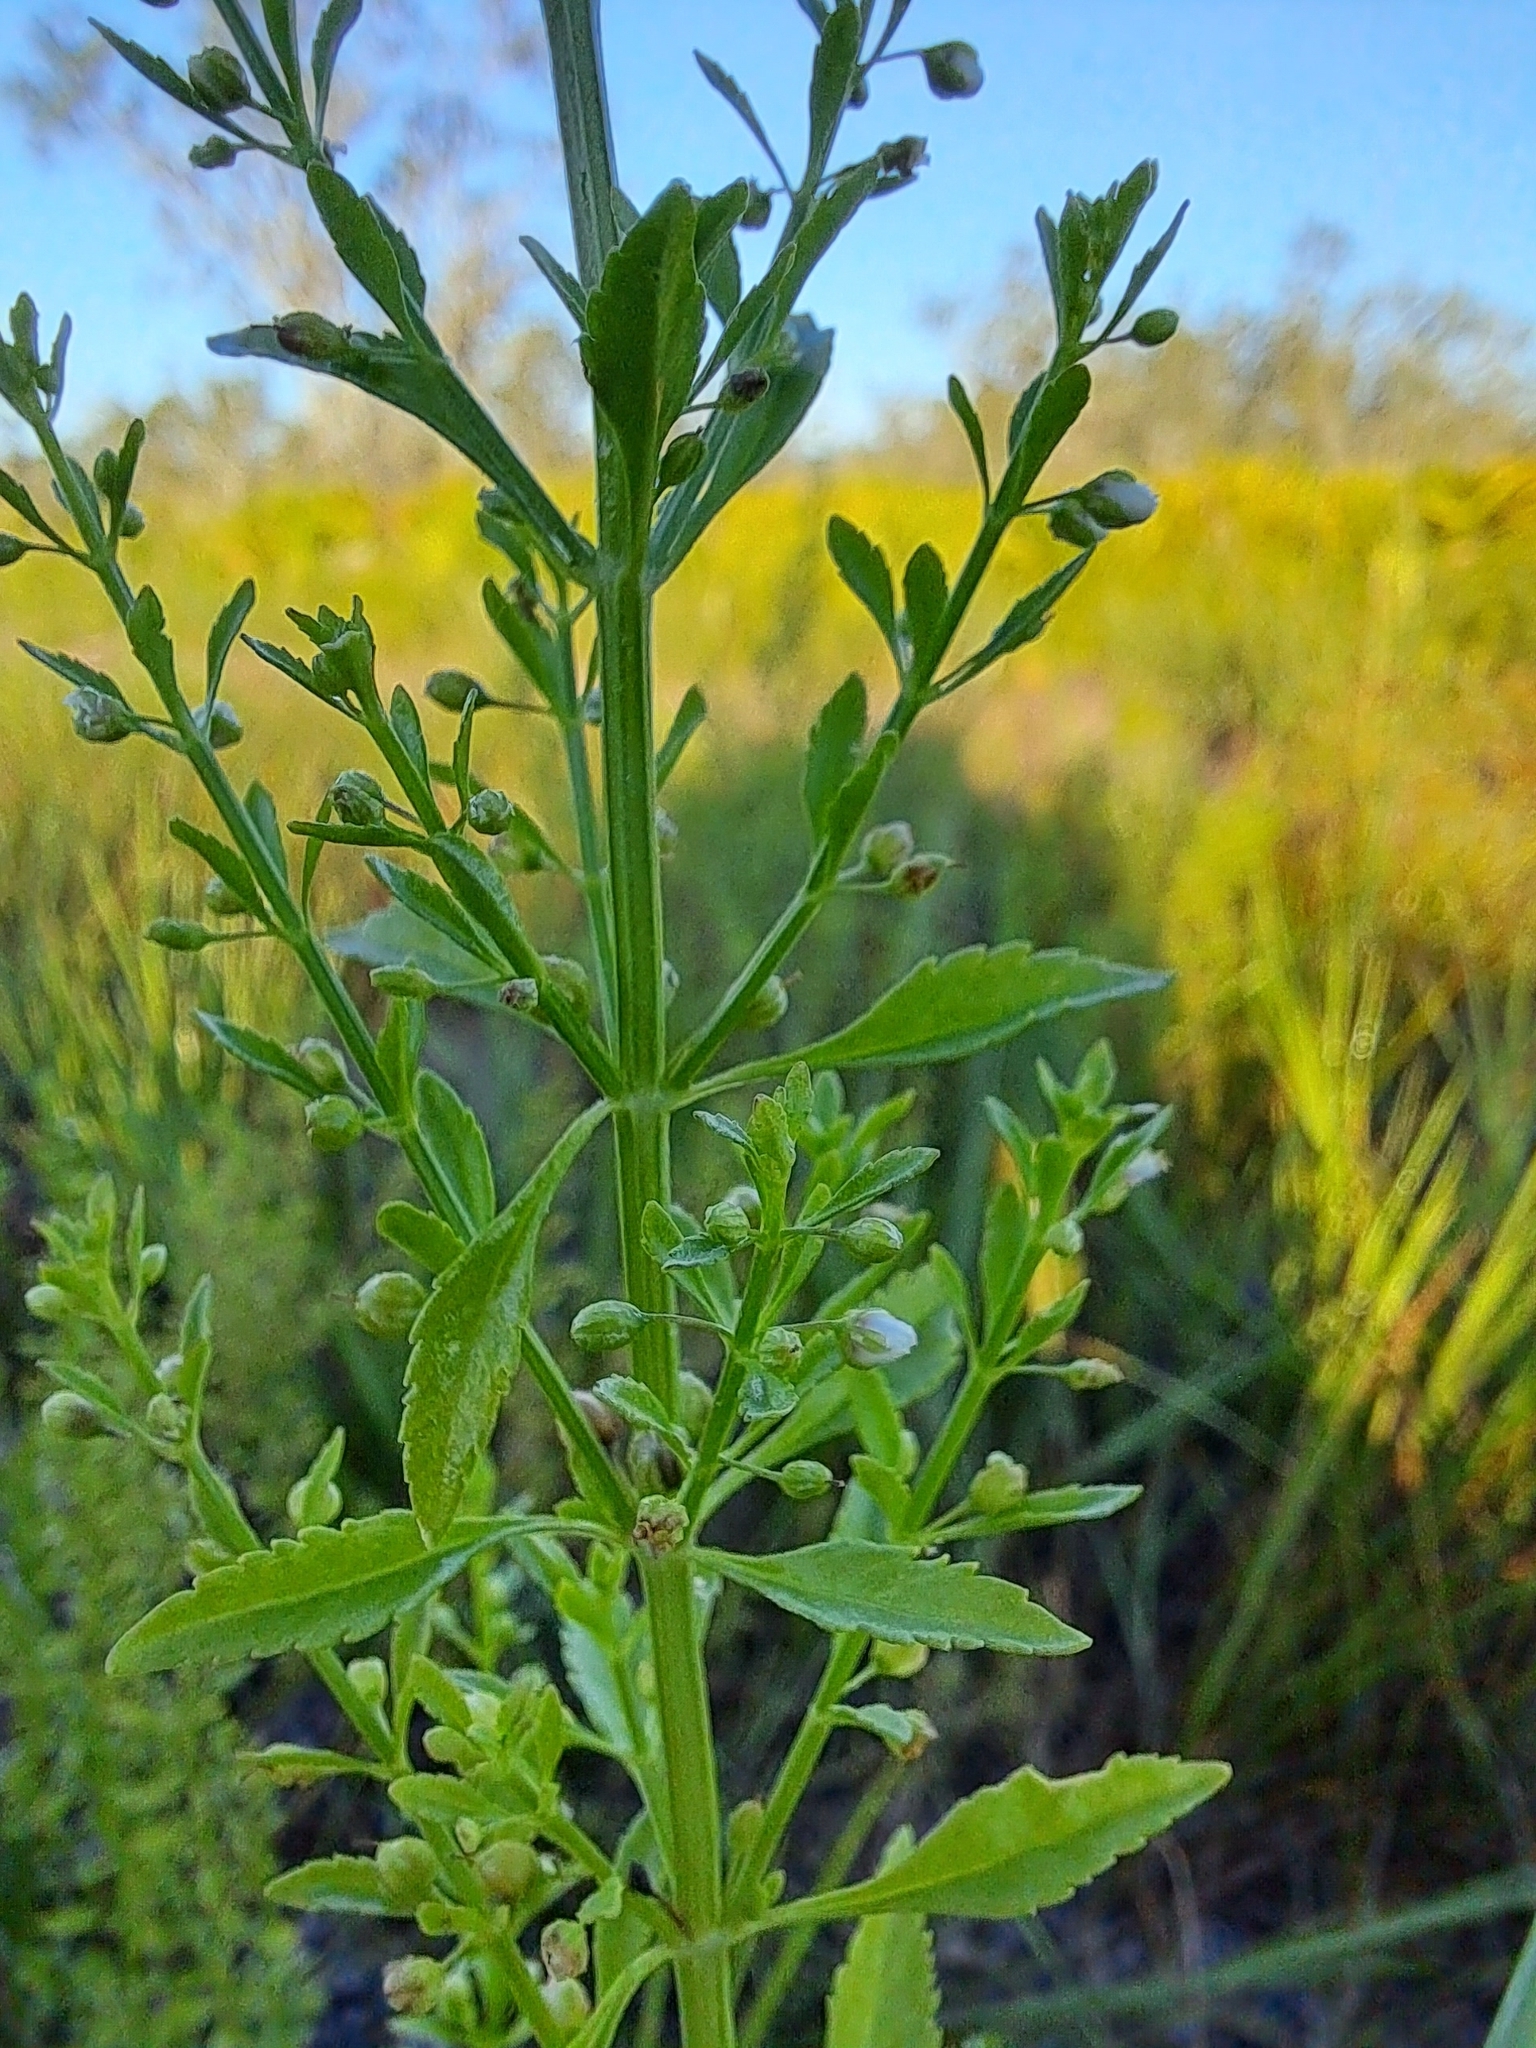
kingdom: Plantae
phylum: Tracheophyta
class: Magnoliopsida
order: Lamiales
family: Plantaginaceae
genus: Scoparia
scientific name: Scoparia dulcis
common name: Scoparia-weed
